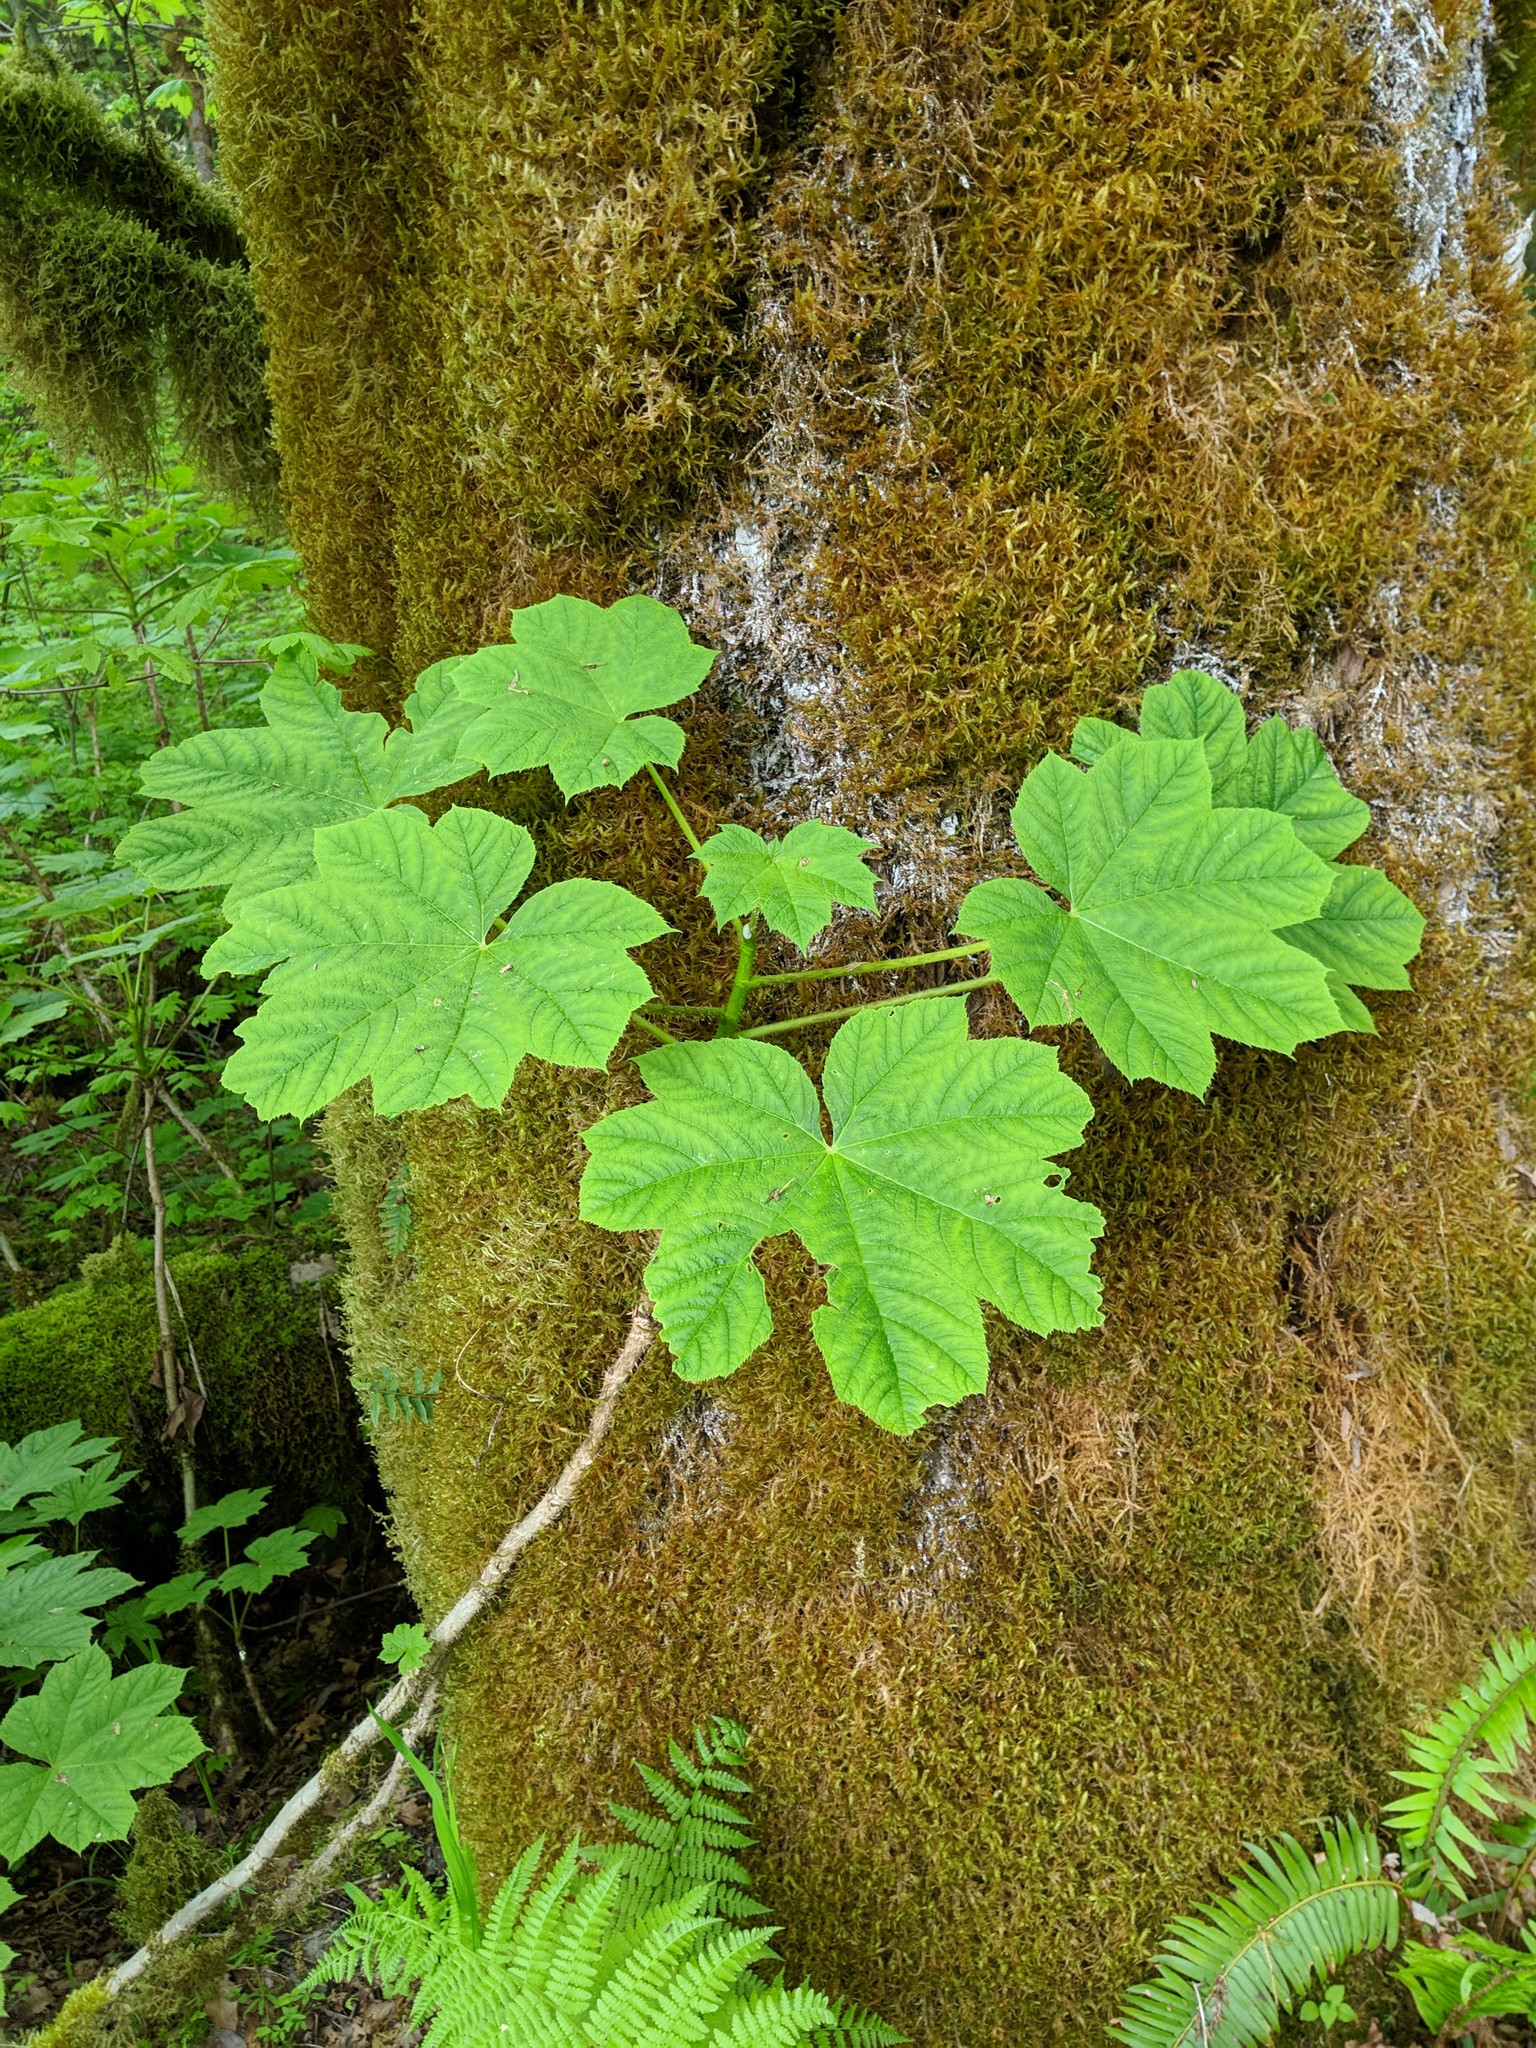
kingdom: Plantae
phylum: Tracheophyta
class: Magnoliopsida
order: Apiales
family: Araliaceae
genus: Oplopanax
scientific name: Oplopanax horridus
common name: Devil's walking-stick
